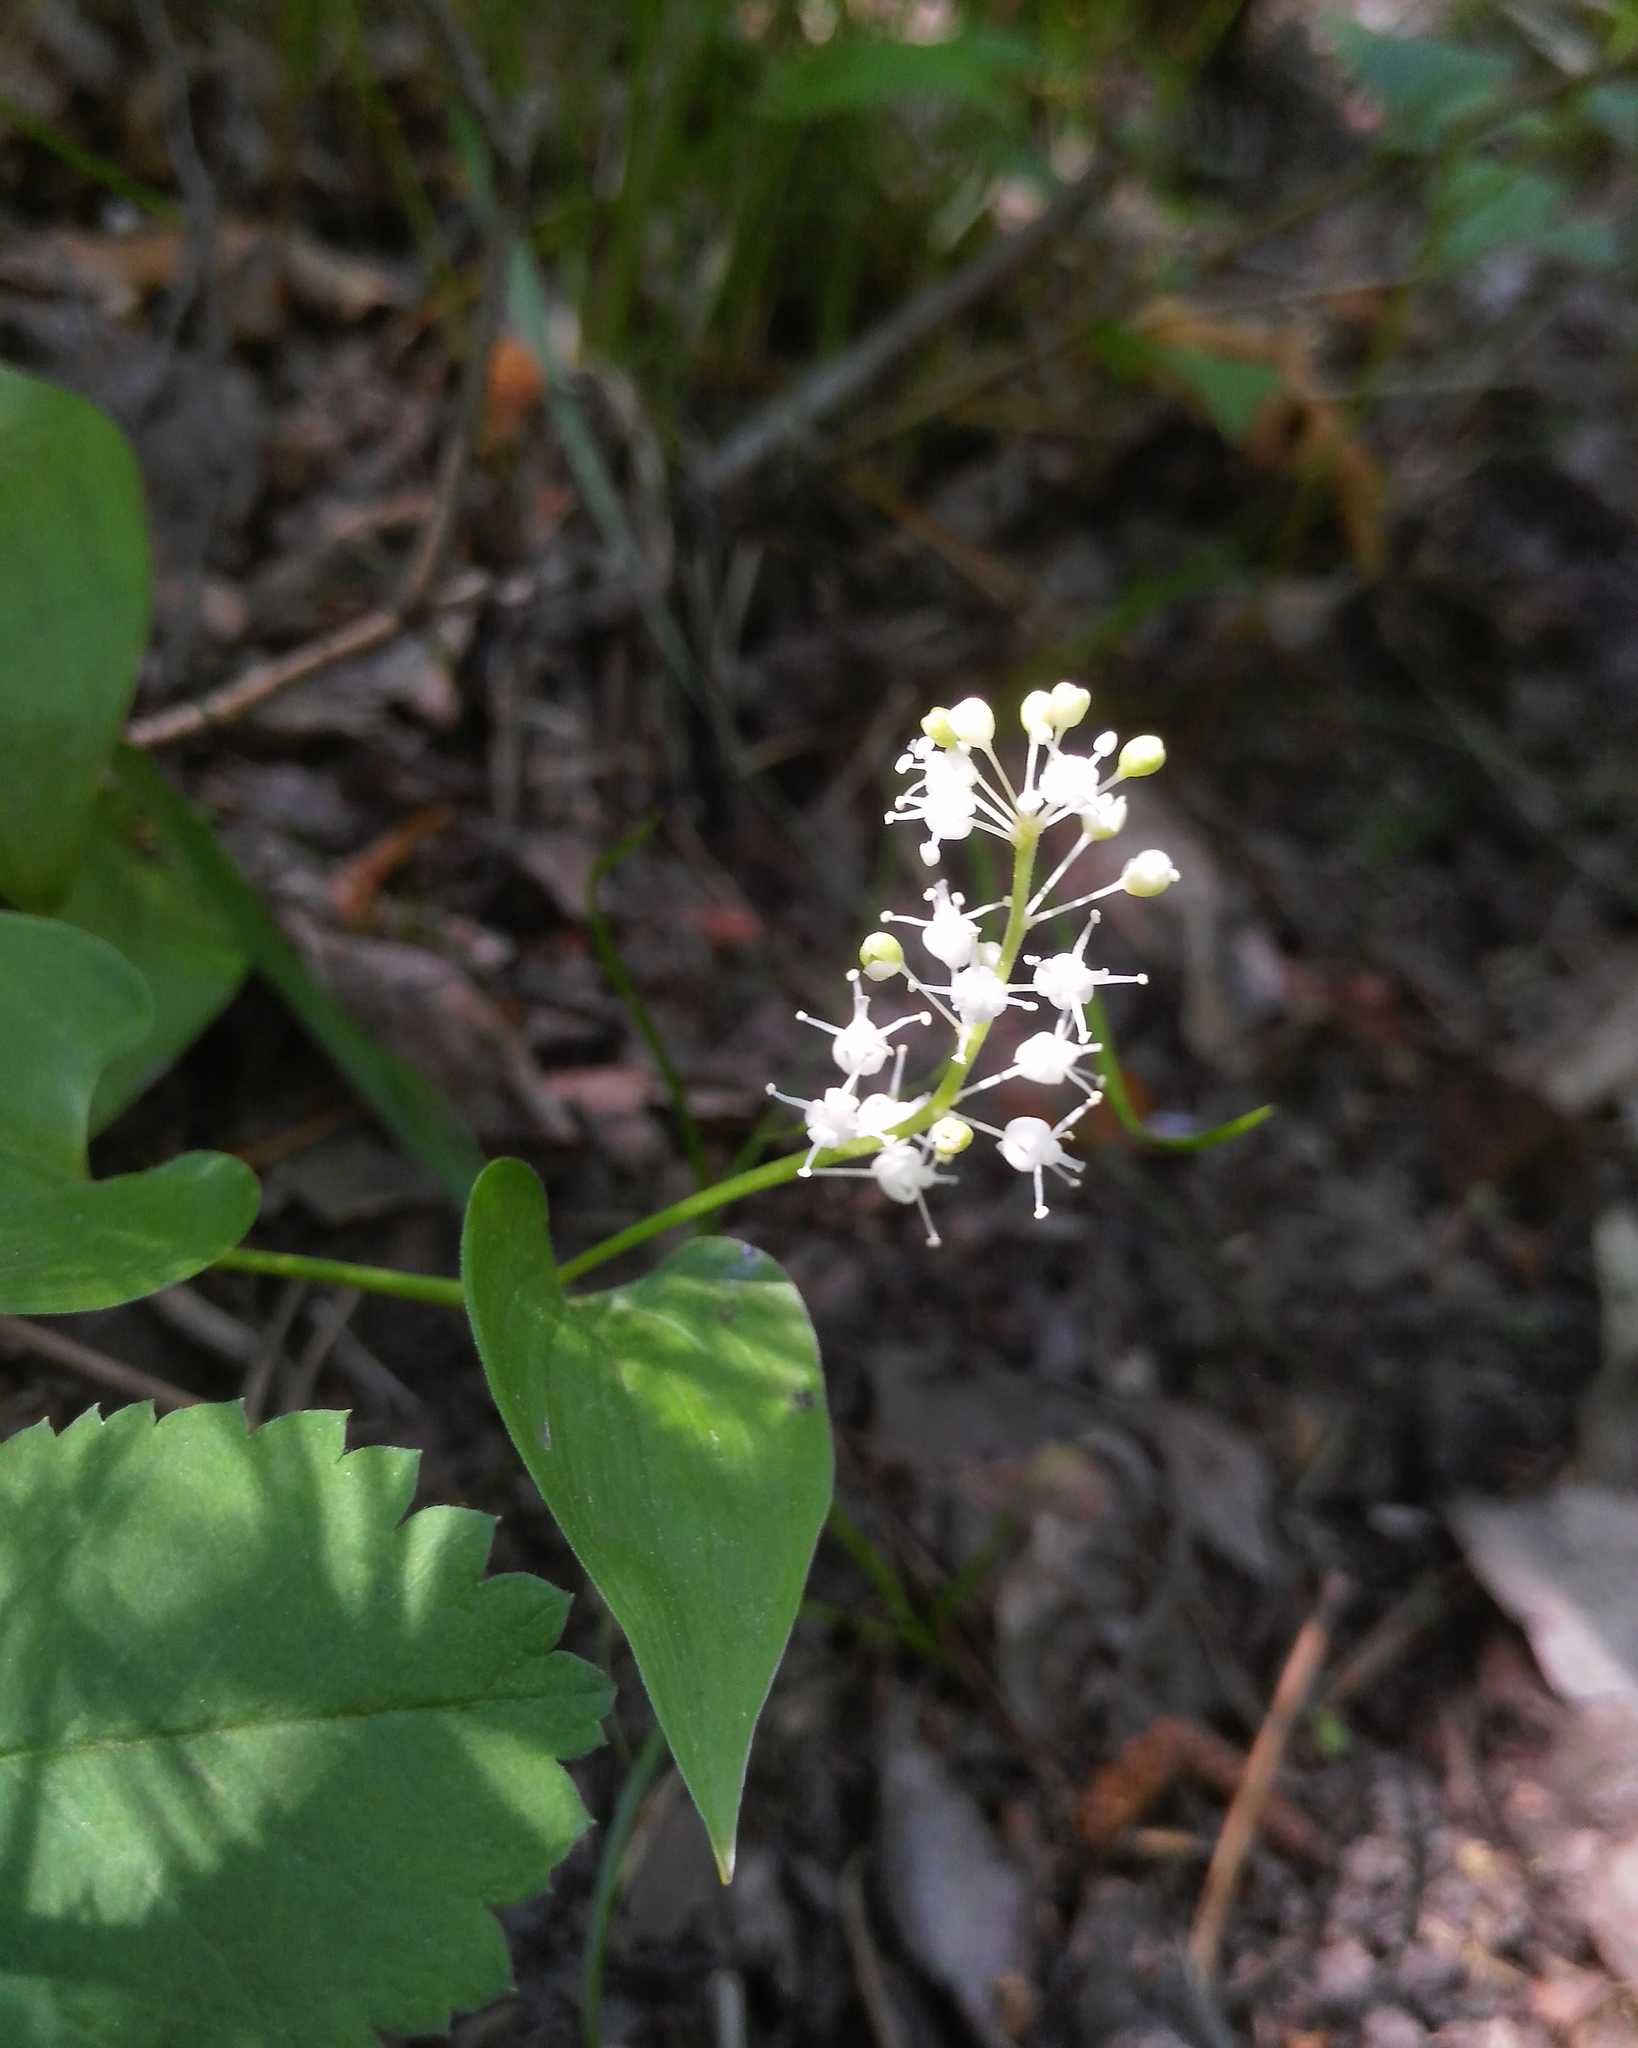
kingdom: Plantae
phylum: Tracheophyta
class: Liliopsida
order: Asparagales
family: Asparagaceae
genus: Maianthemum
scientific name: Maianthemum bifolium
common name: May lily
